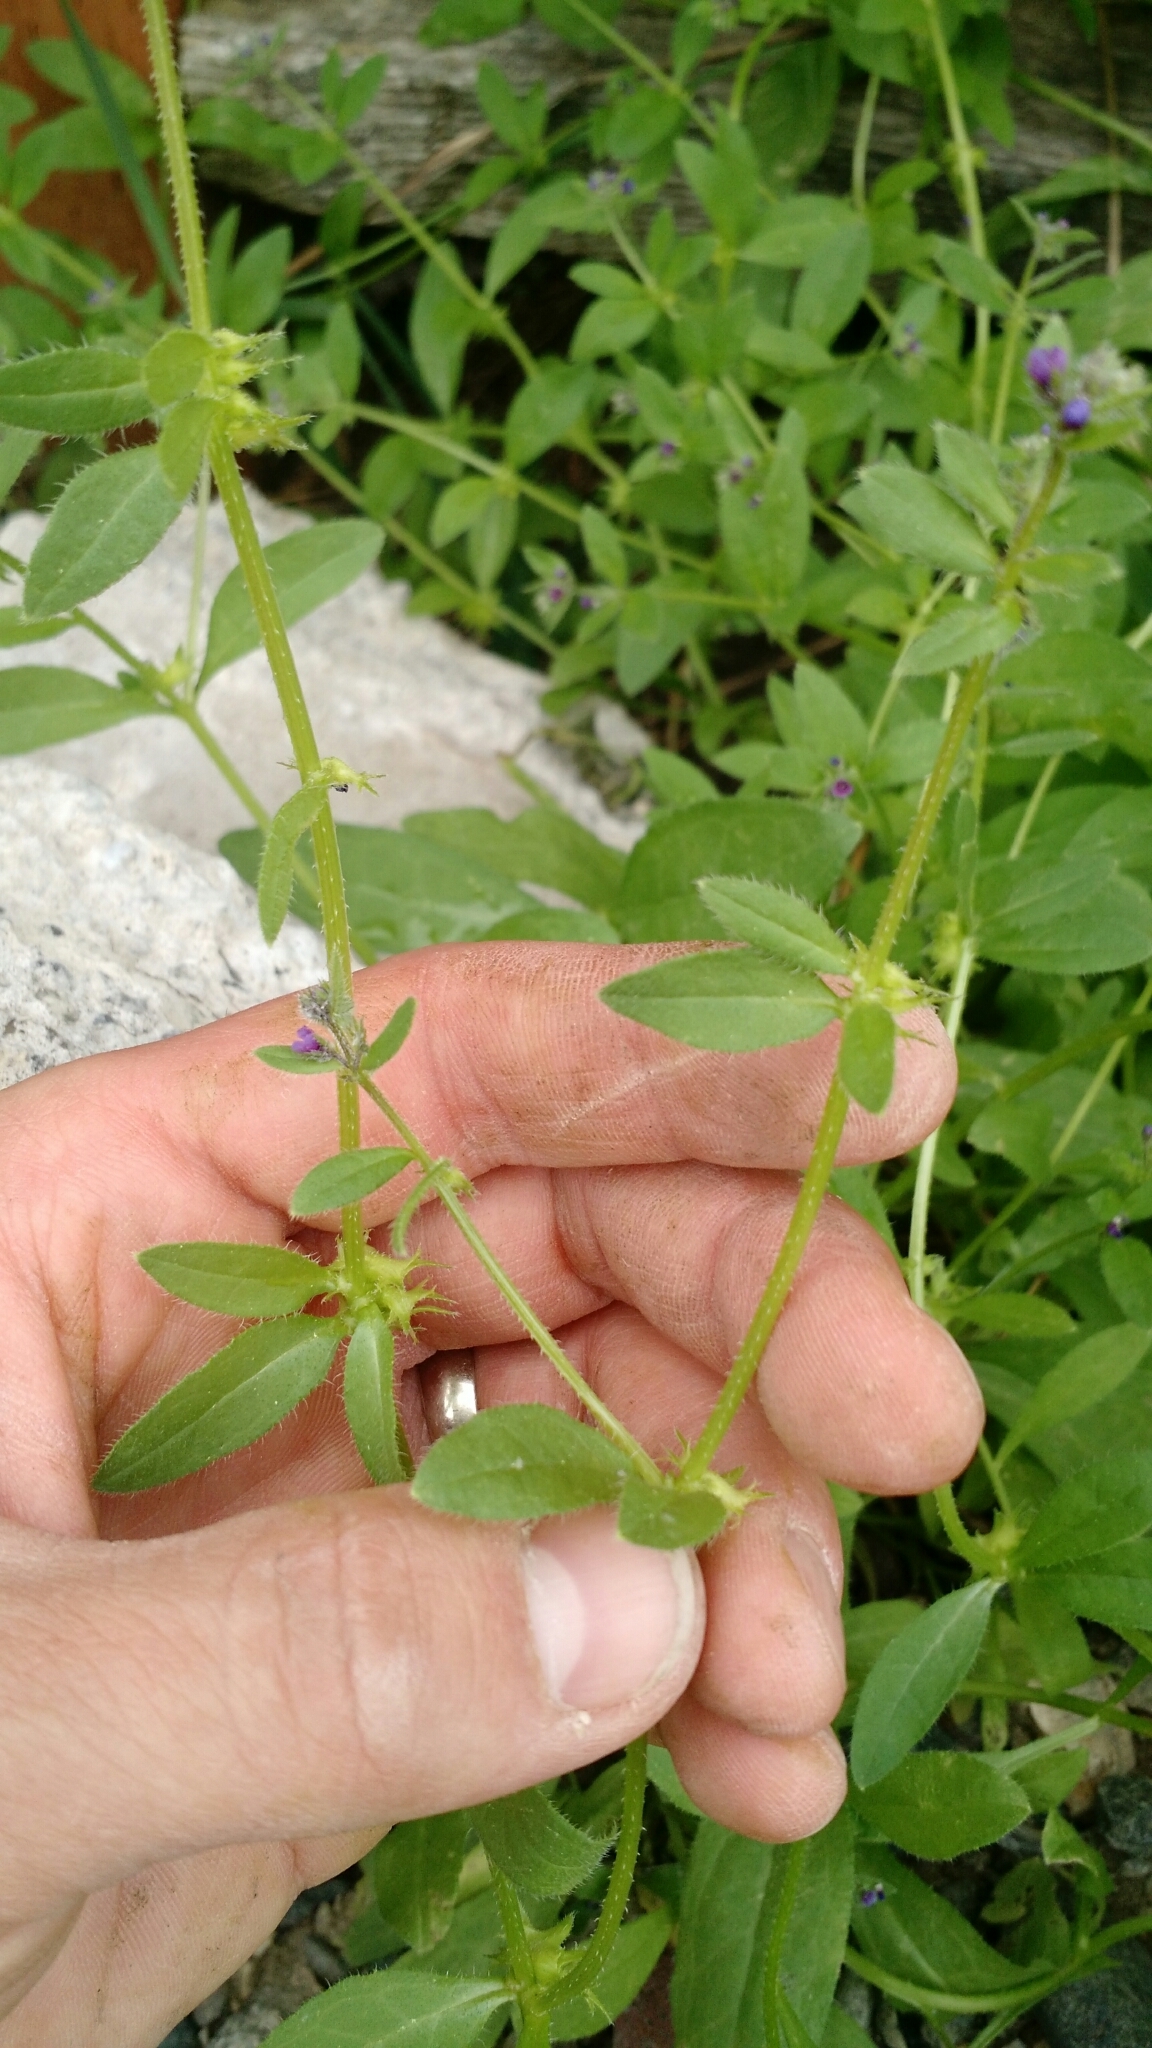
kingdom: Plantae
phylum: Tracheophyta
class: Magnoliopsida
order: Boraginales
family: Boraginaceae
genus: Asperugo
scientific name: Asperugo procumbens
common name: Madwort
